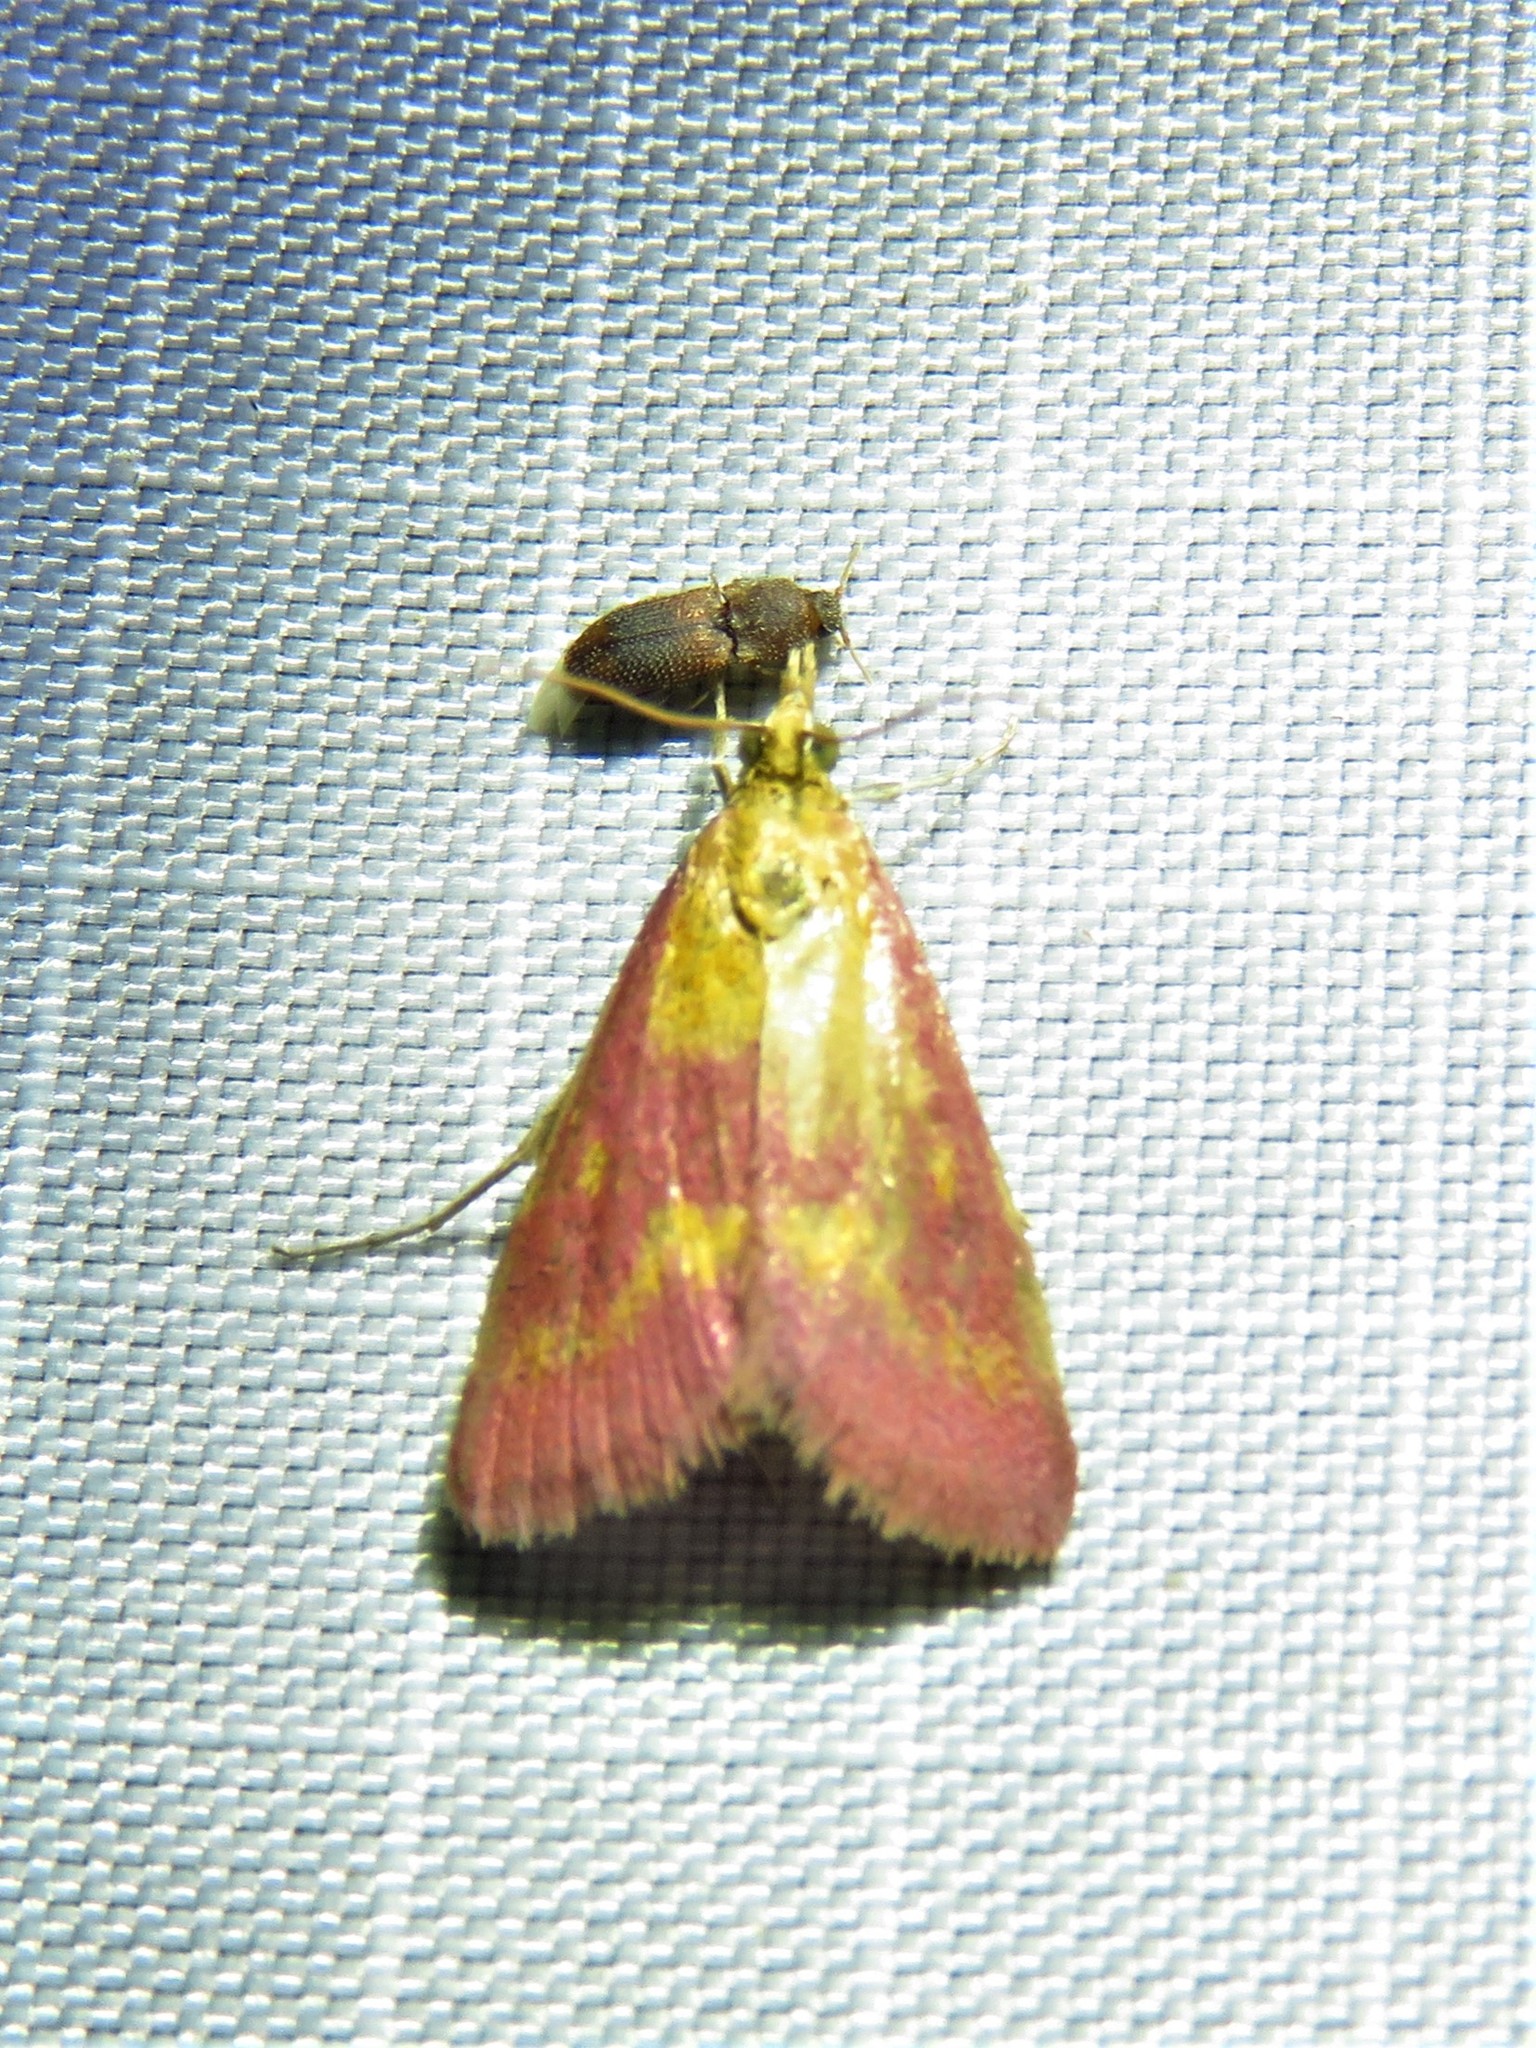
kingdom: Animalia
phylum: Arthropoda
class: Insecta
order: Lepidoptera
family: Crambidae
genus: Pyrausta
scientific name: Pyrausta laticlavia
